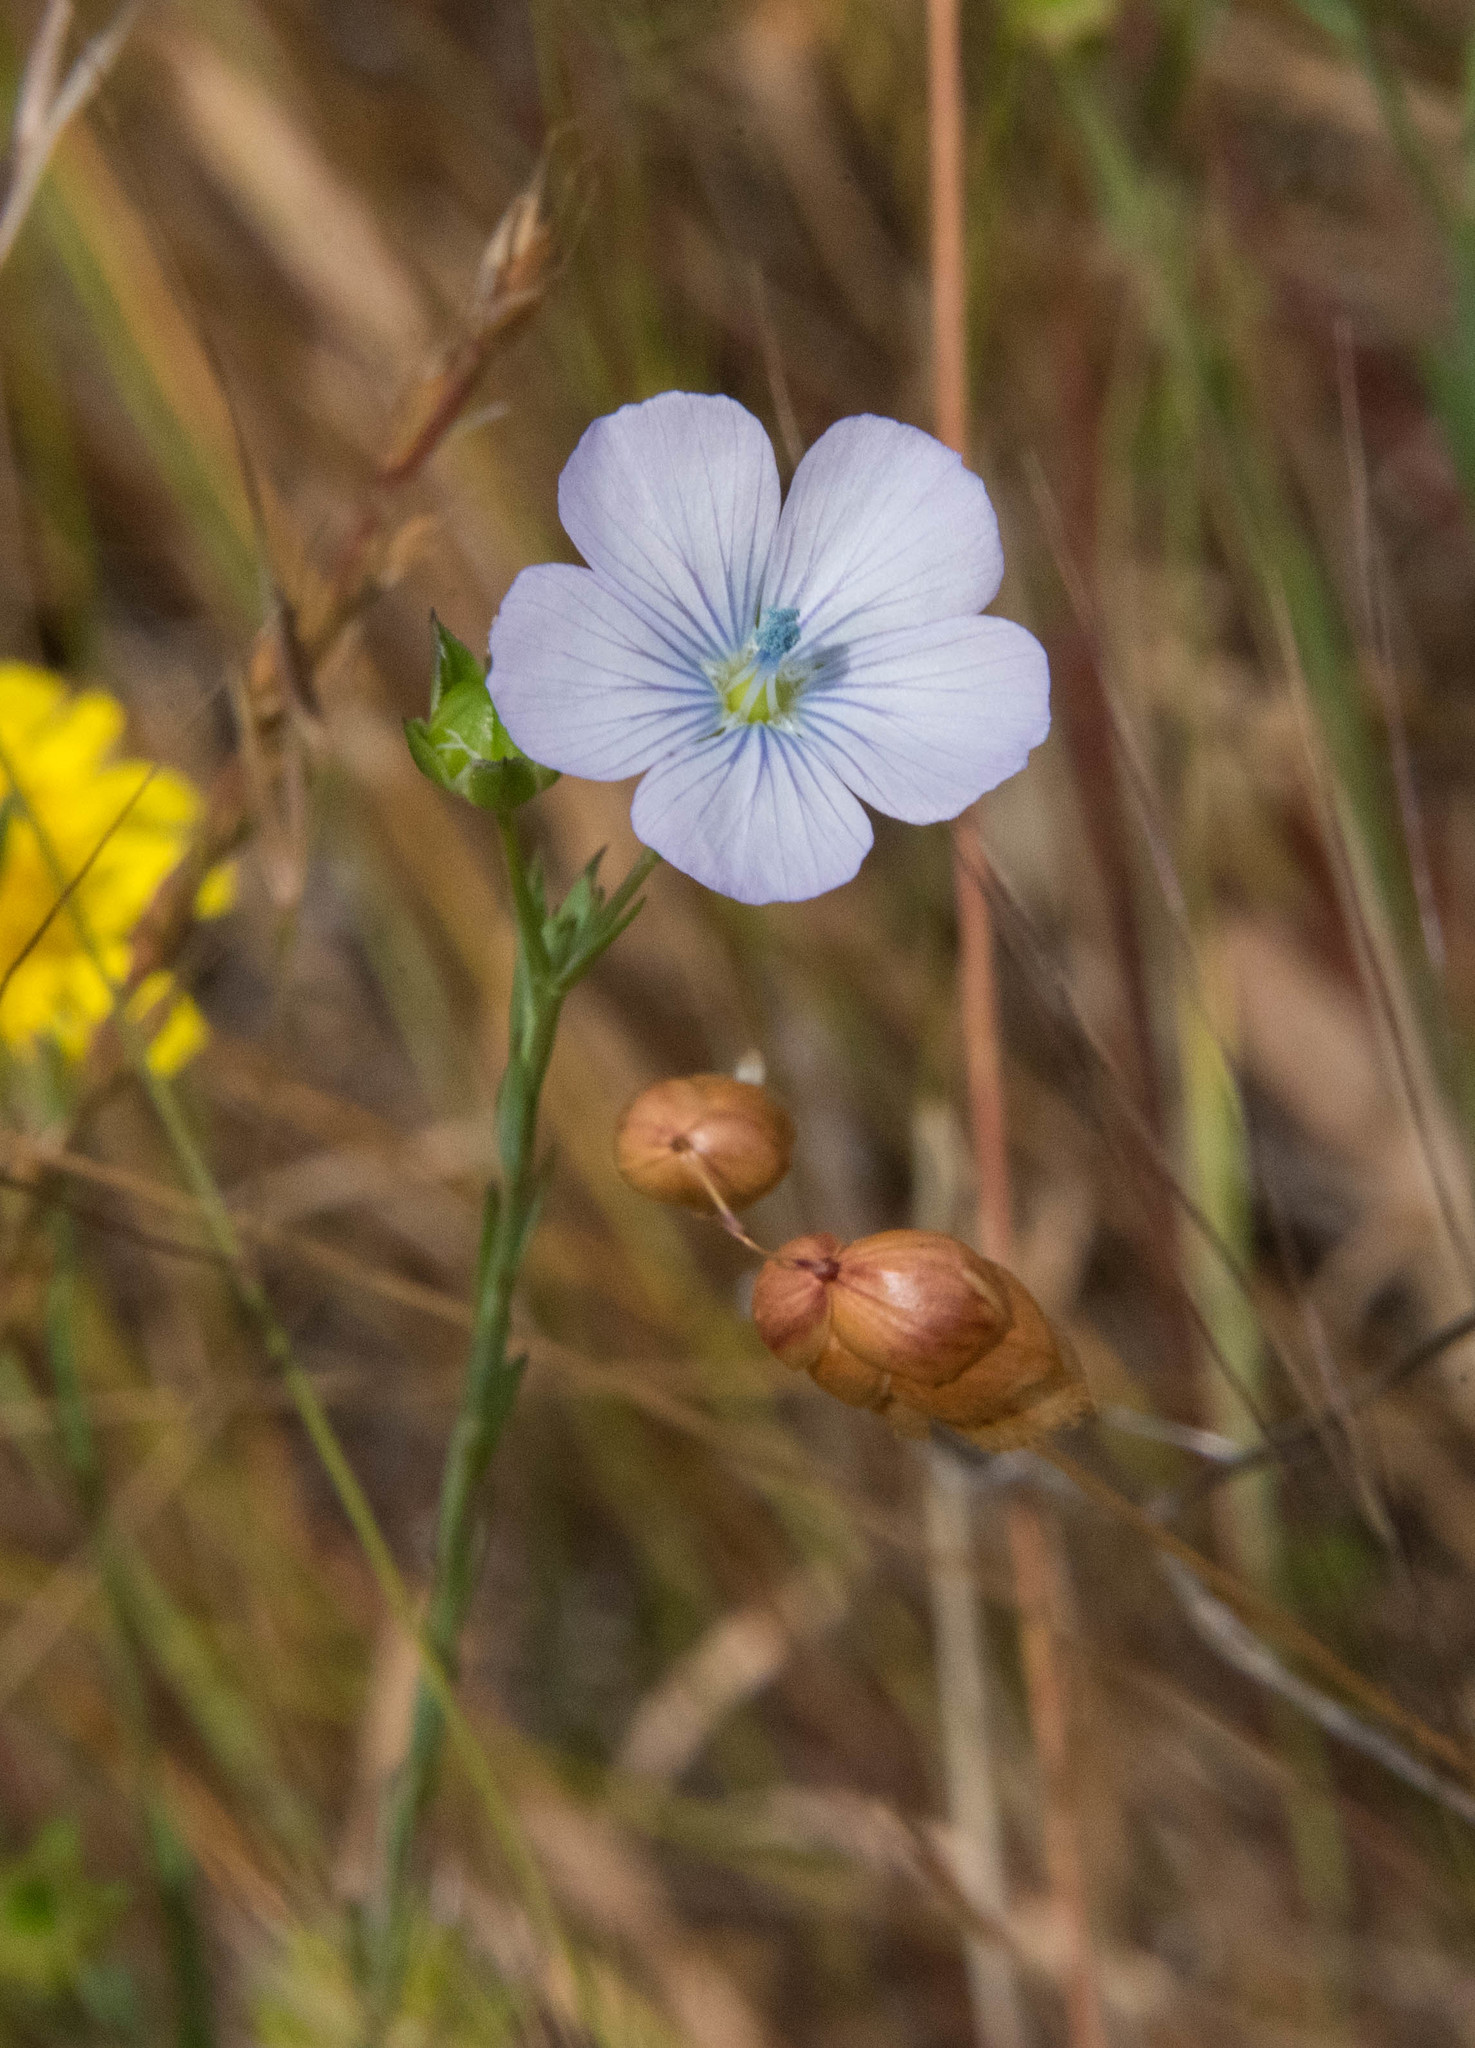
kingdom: Plantae
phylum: Tracheophyta
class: Magnoliopsida
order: Malpighiales
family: Linaceae
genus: Linum
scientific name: Linum bienne
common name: Pale flax
